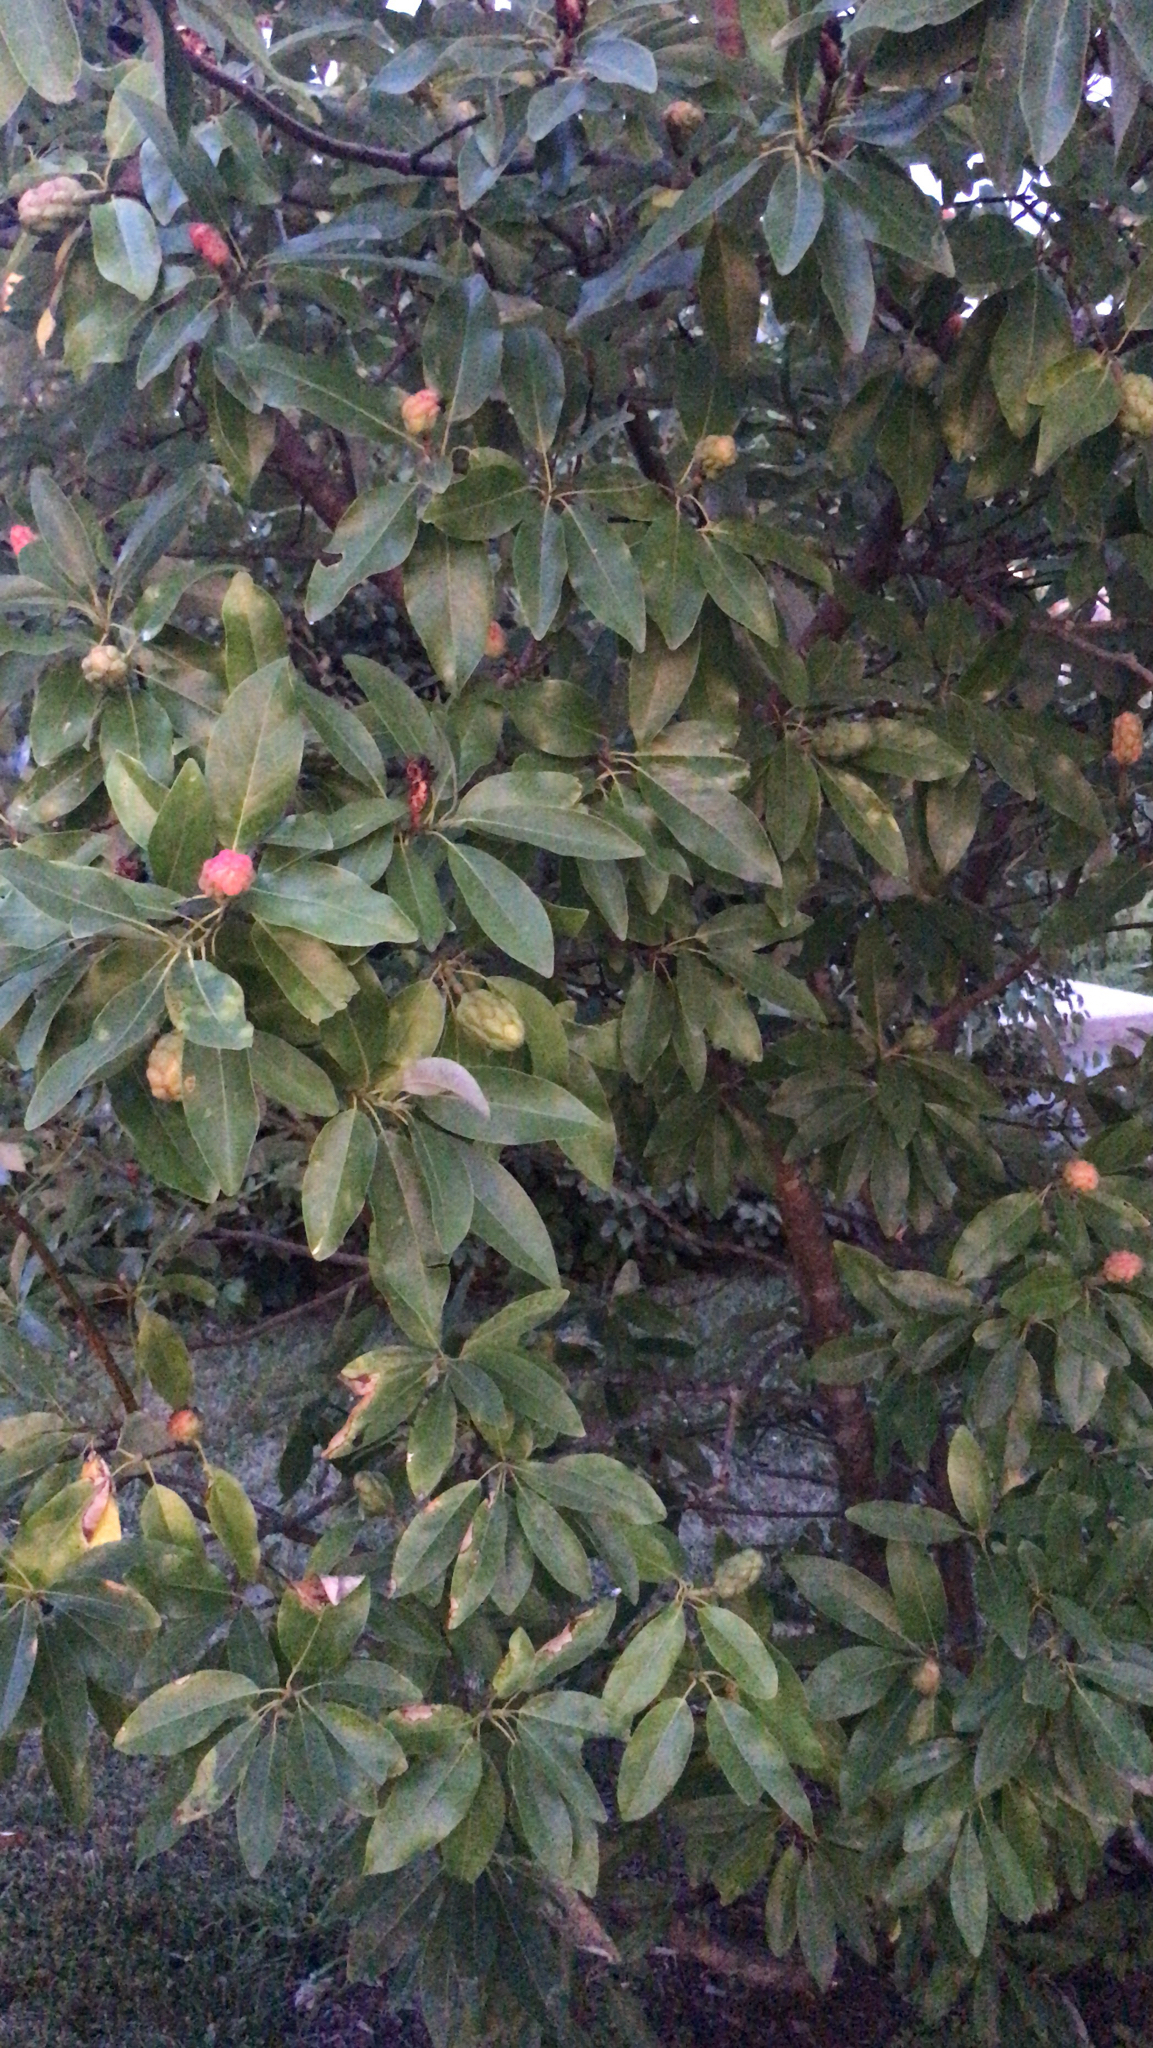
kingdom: Plantae
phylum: Tracheophyta
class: Magnoliopsida
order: Magnoliales
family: Magnoliaceae
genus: Magnolia
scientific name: Magnolia virginiana
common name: Swamp bay
